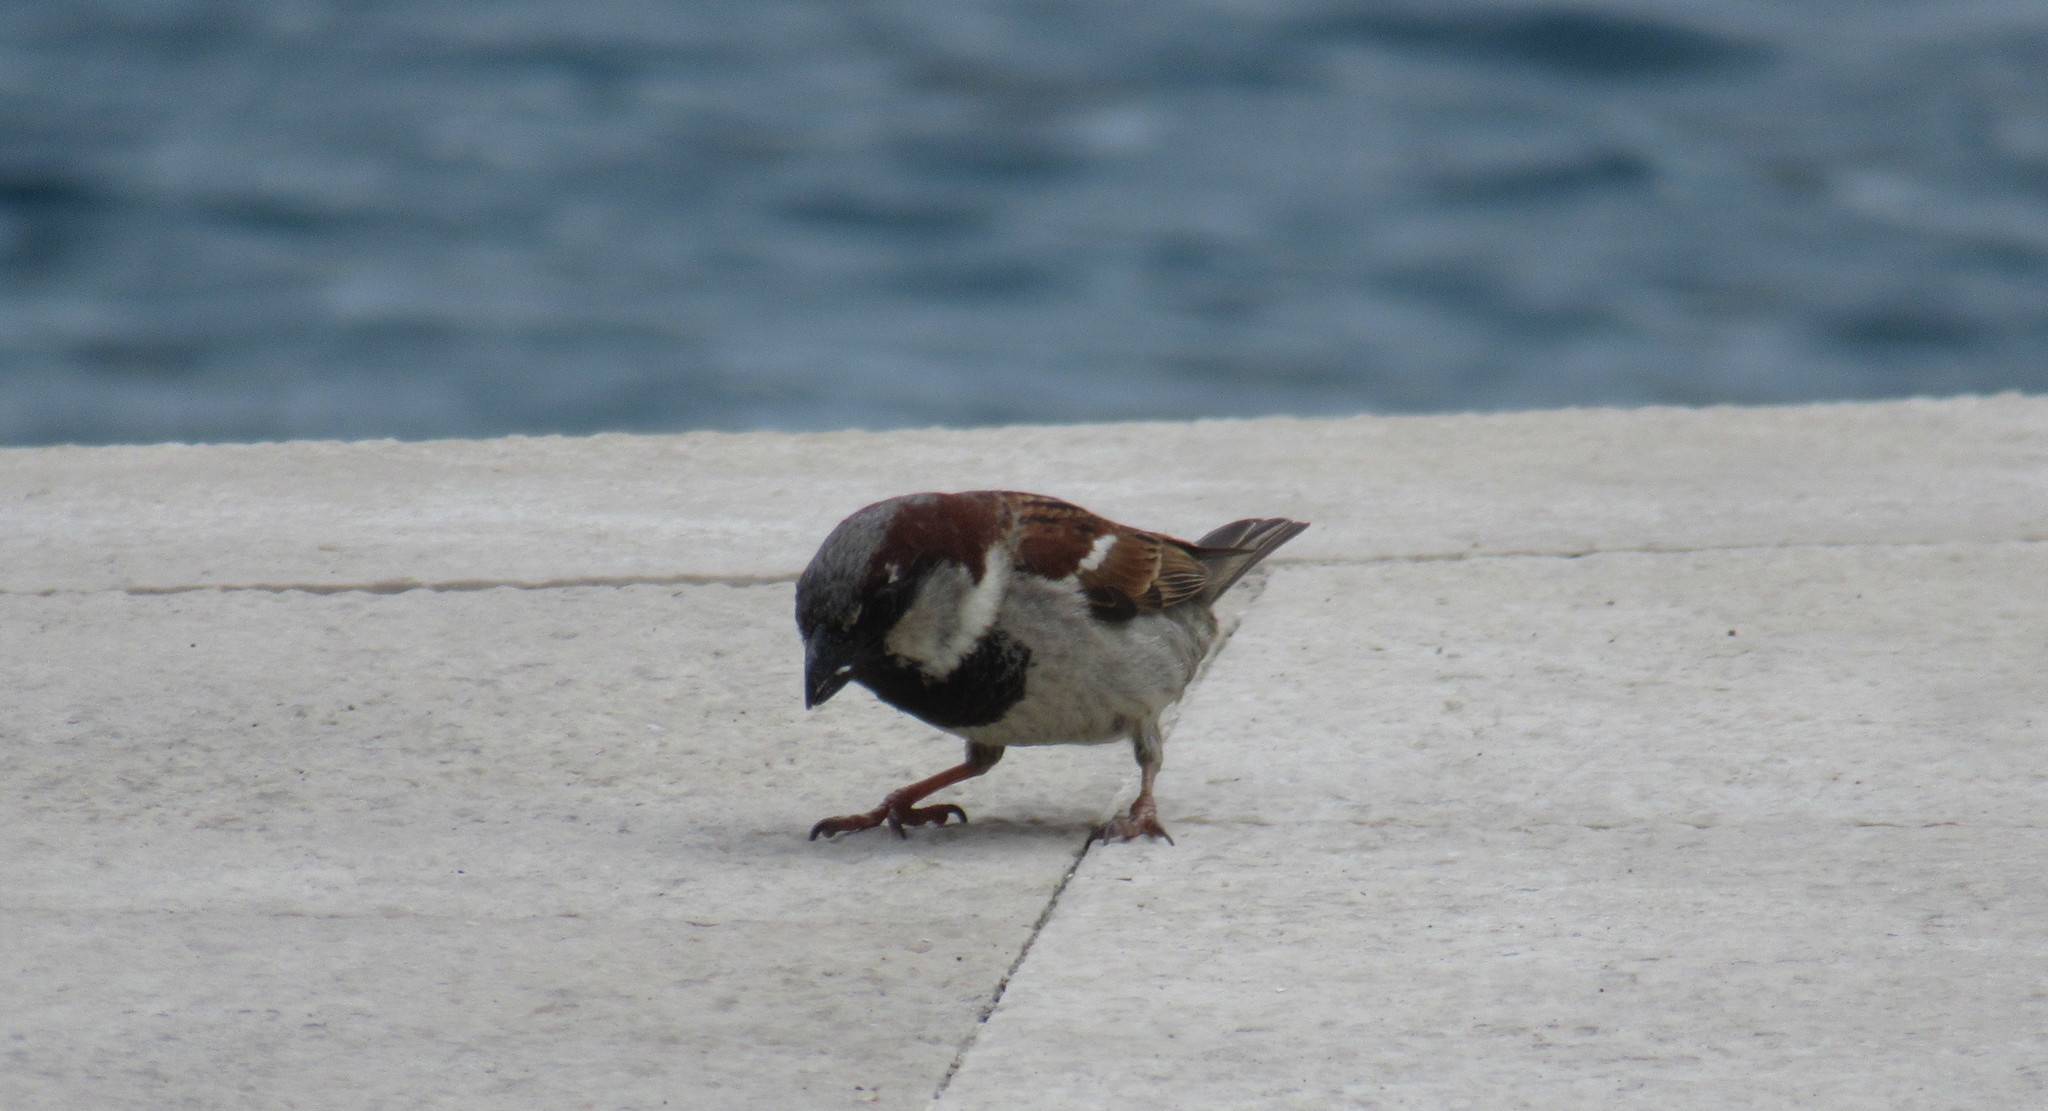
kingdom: Animalia
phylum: Chordata
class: Aves
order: Passeriformes
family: Passeridae
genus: Passer
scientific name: Passer domesticus
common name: House sparrow
